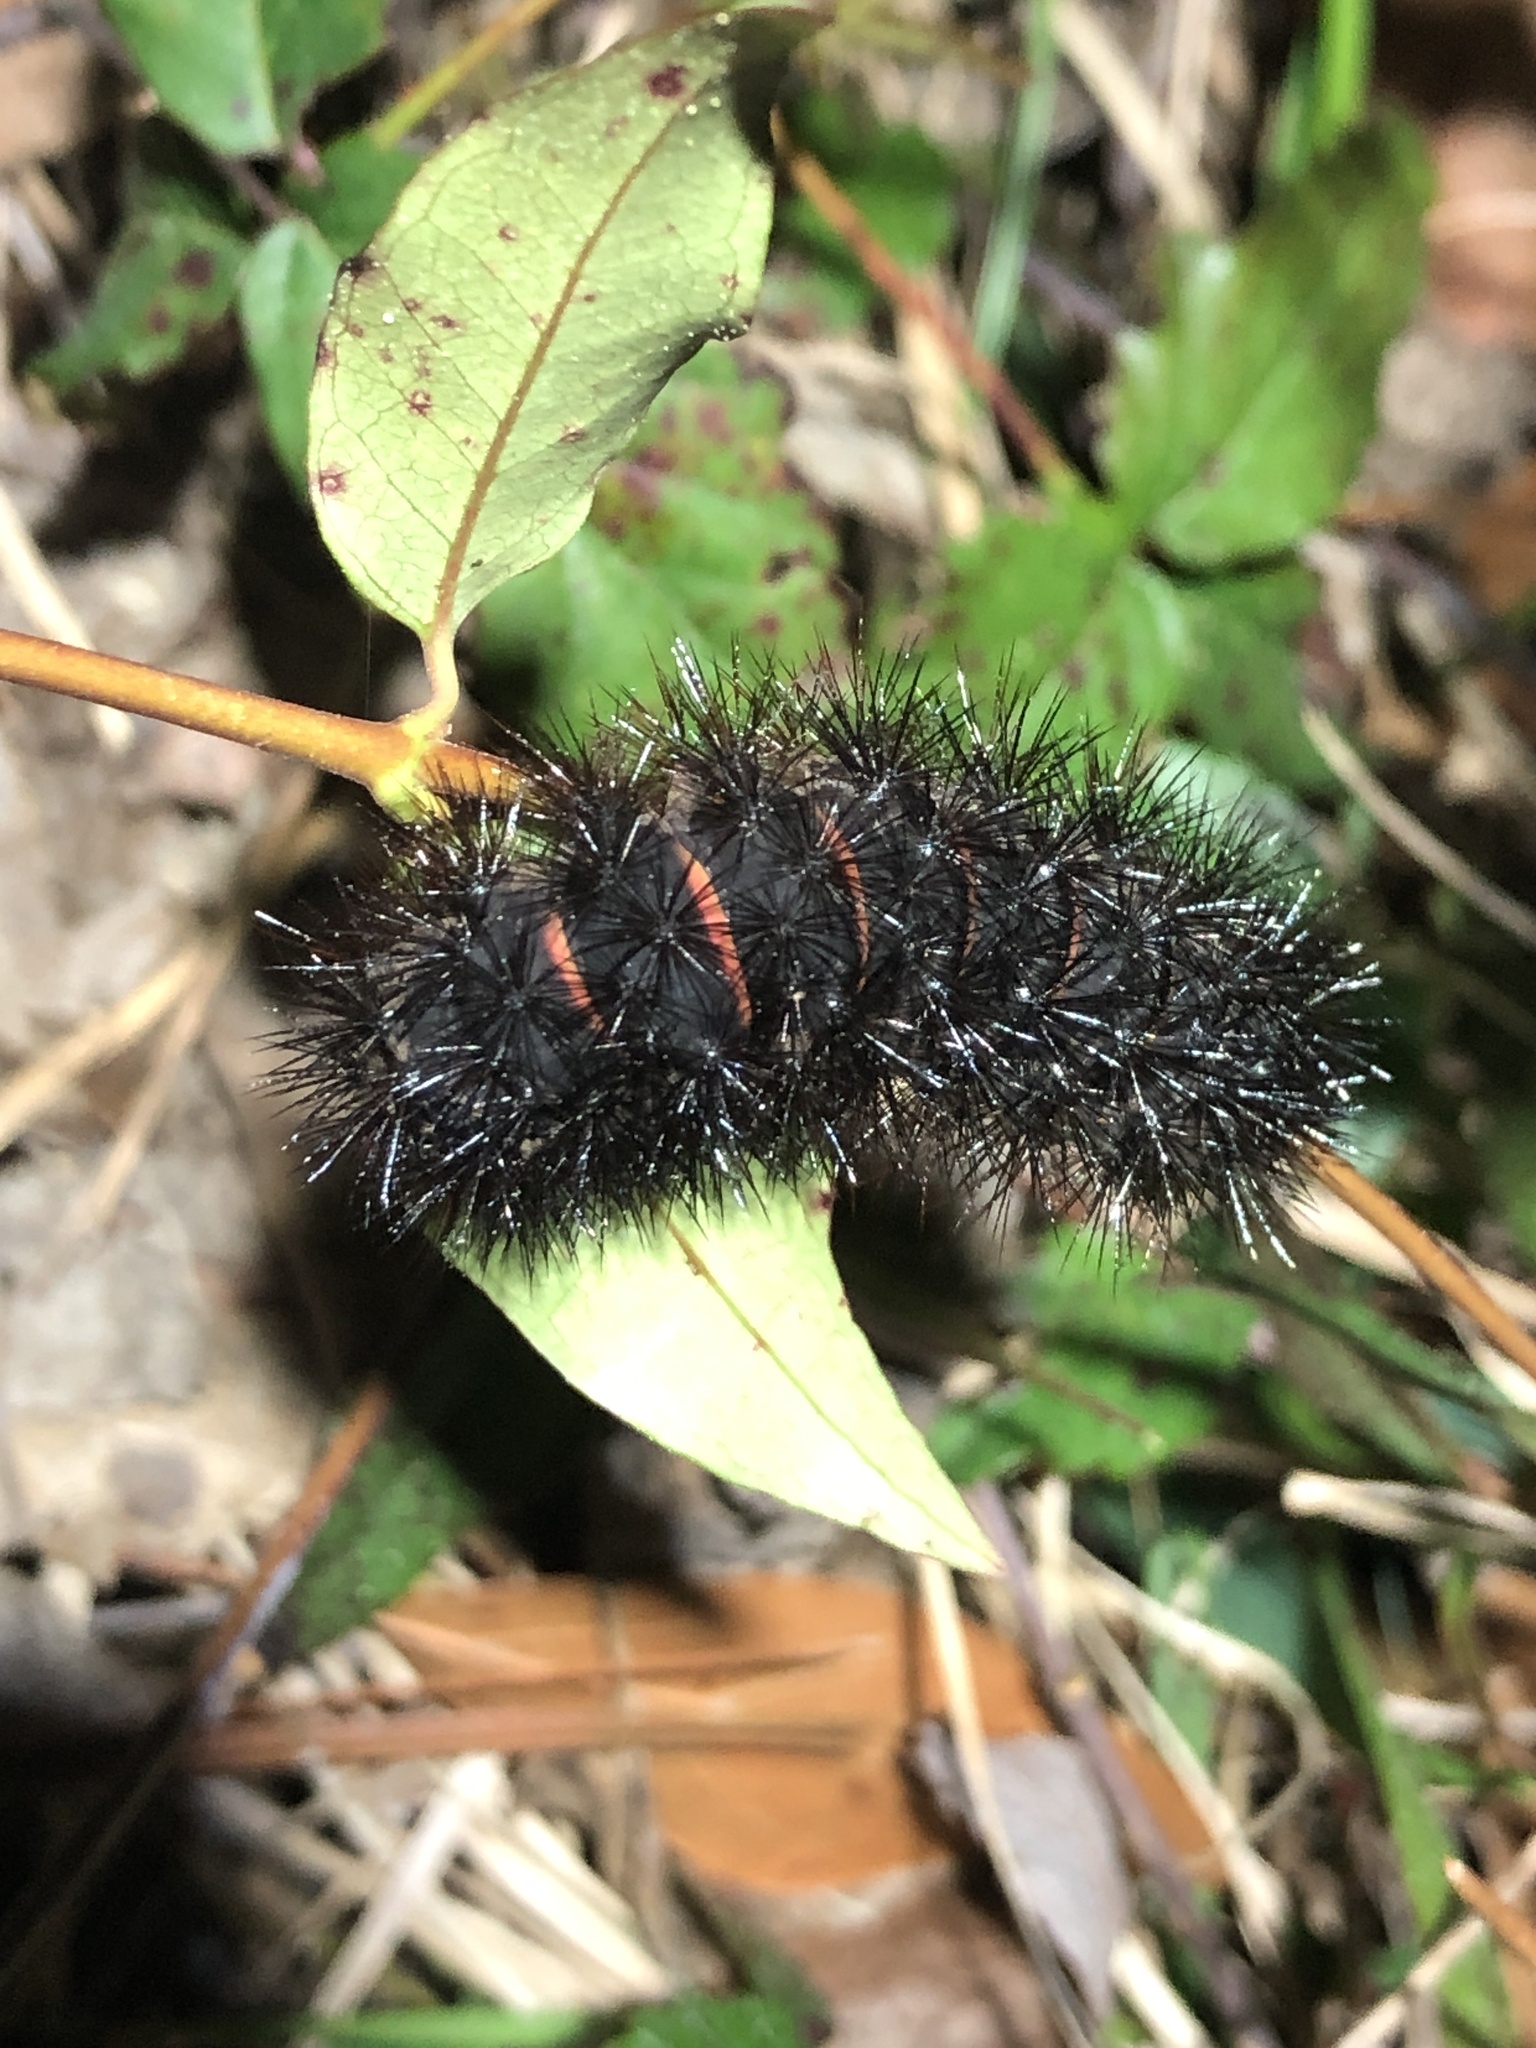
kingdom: Animalia
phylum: Arthropoda
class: Insecta
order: Lepidoptera
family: Erebidae
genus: Hypercompe
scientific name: Hypercompe scribonia
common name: Giant leopard moth
